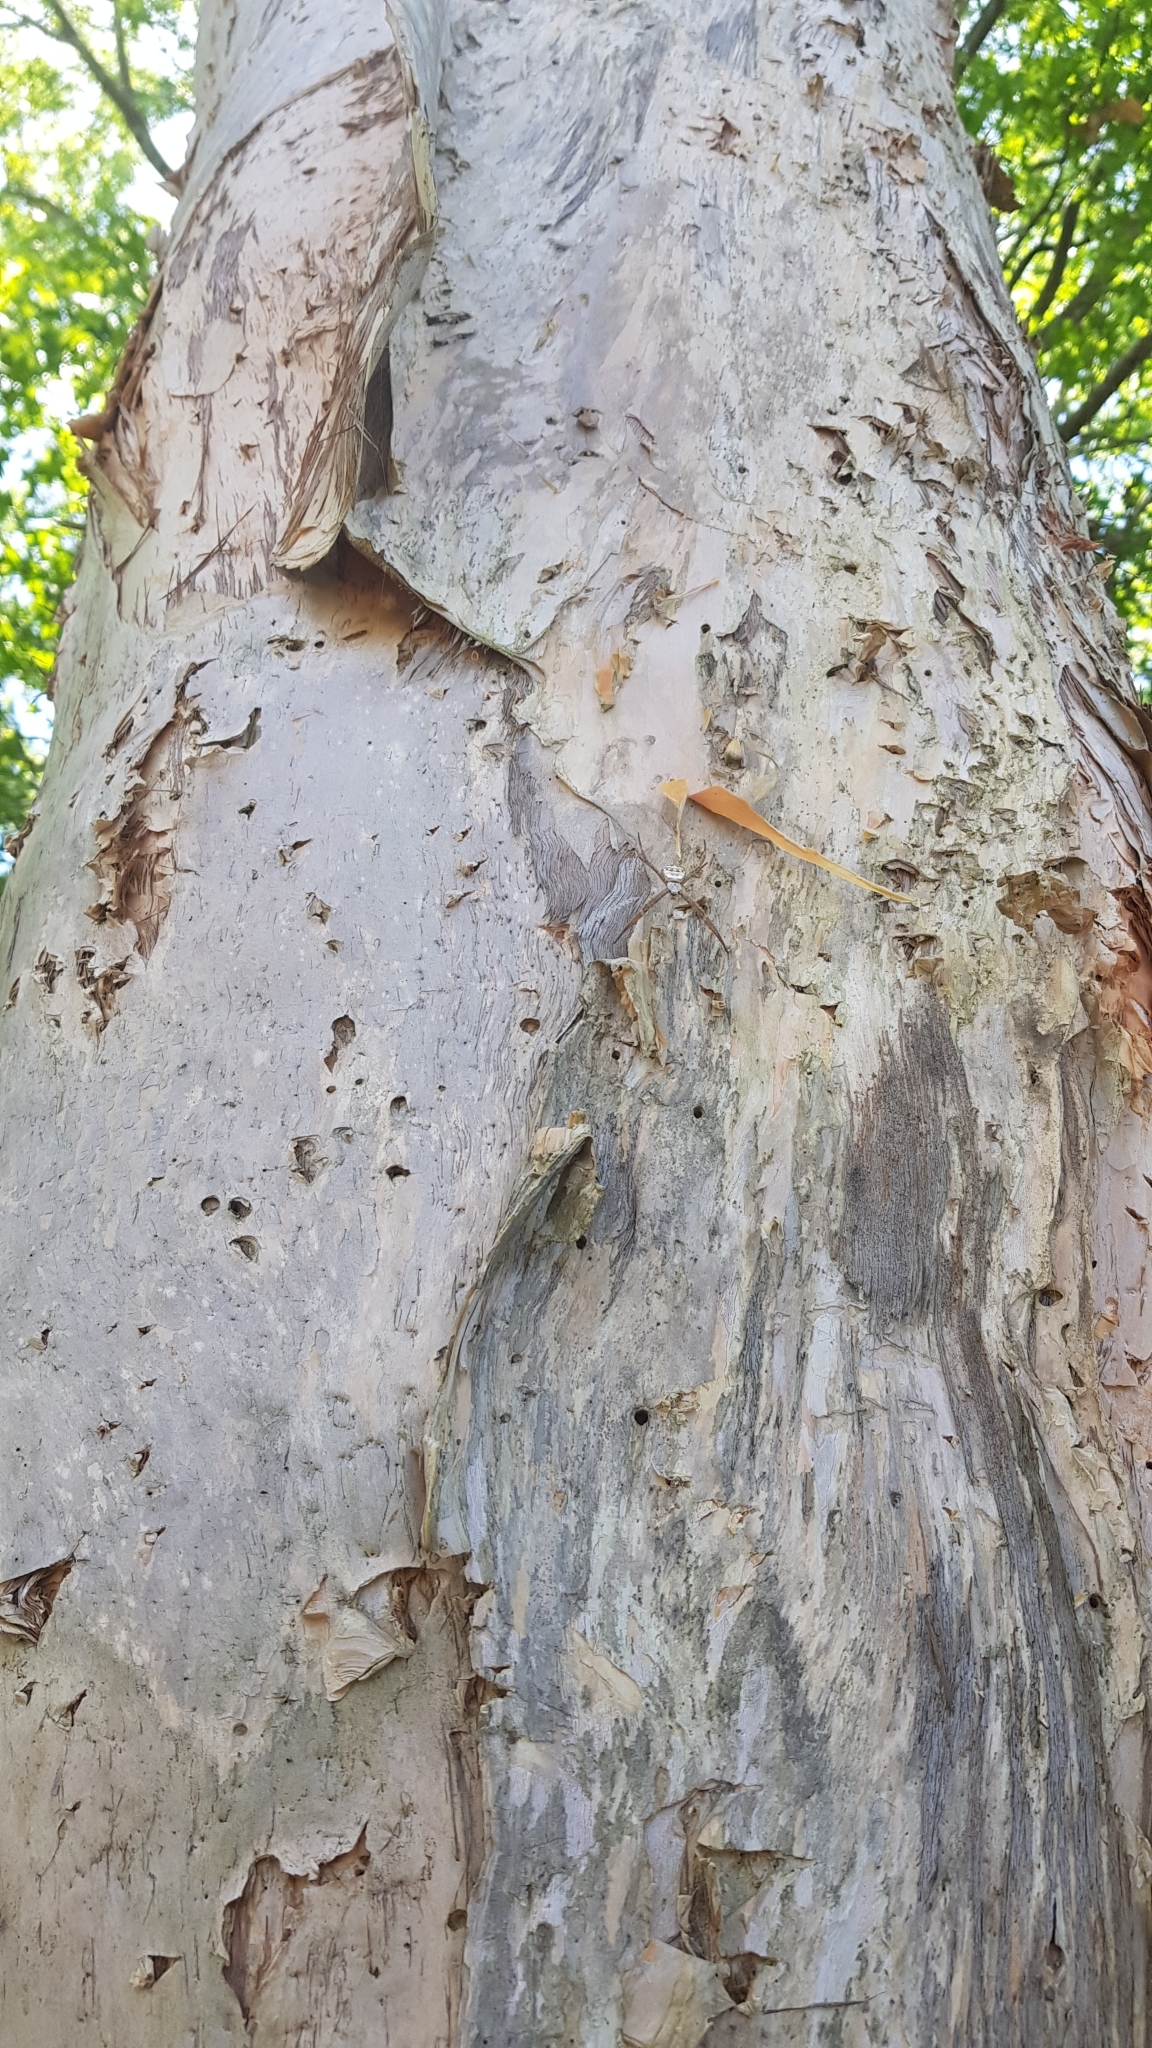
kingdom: Animalia
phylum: Arthropoda
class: Arachnida
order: Araneae
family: Araneidae
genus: Argiope
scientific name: Argiope keyserlingi
